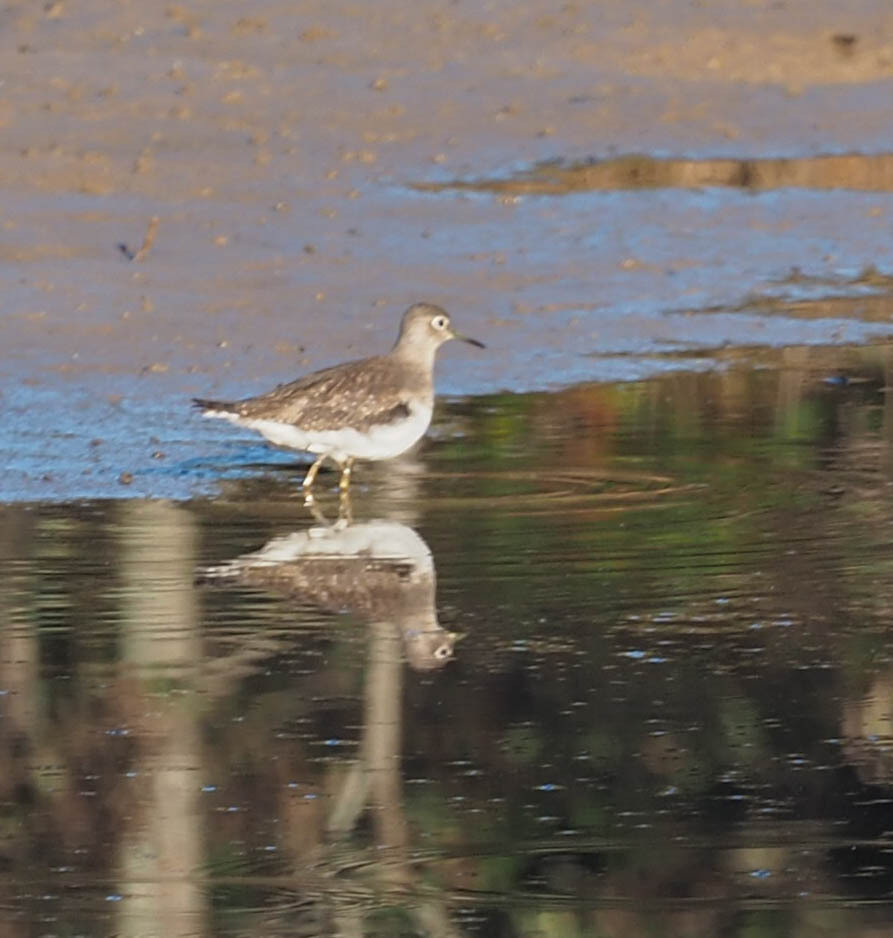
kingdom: Animalia
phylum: Chordata
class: Aves
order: Charadriiformes
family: Scolopacidae
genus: Tringa
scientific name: Tringa solitaria
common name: Solitary sandpiper
